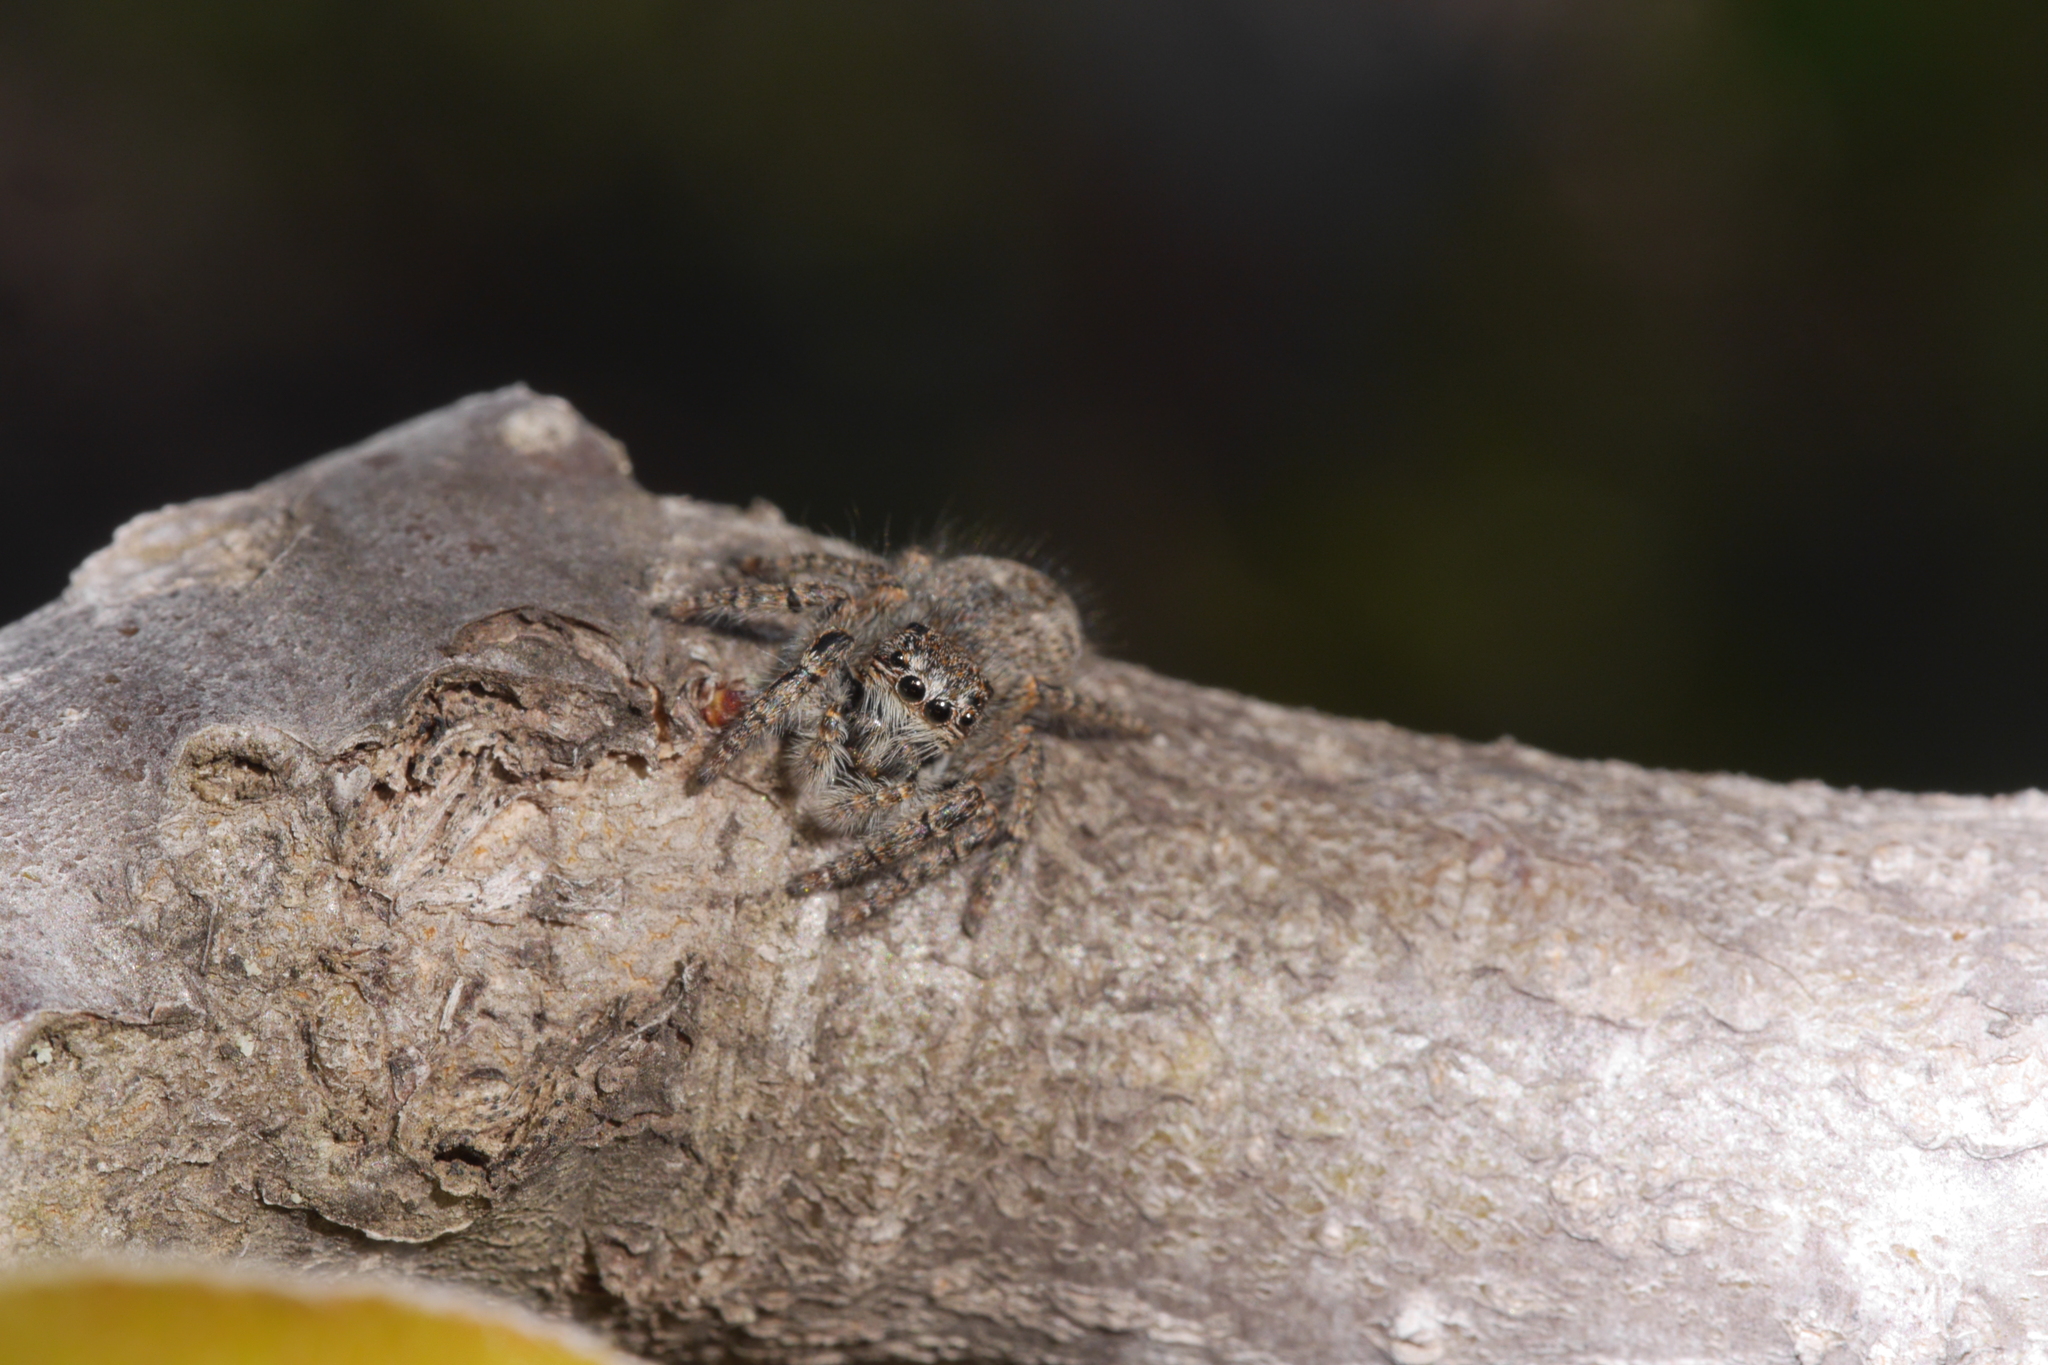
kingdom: Animalia
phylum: Arthropoda
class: Arachnida
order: Araneae
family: Salticidae
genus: Philaeus
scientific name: Philaeus chrysops
